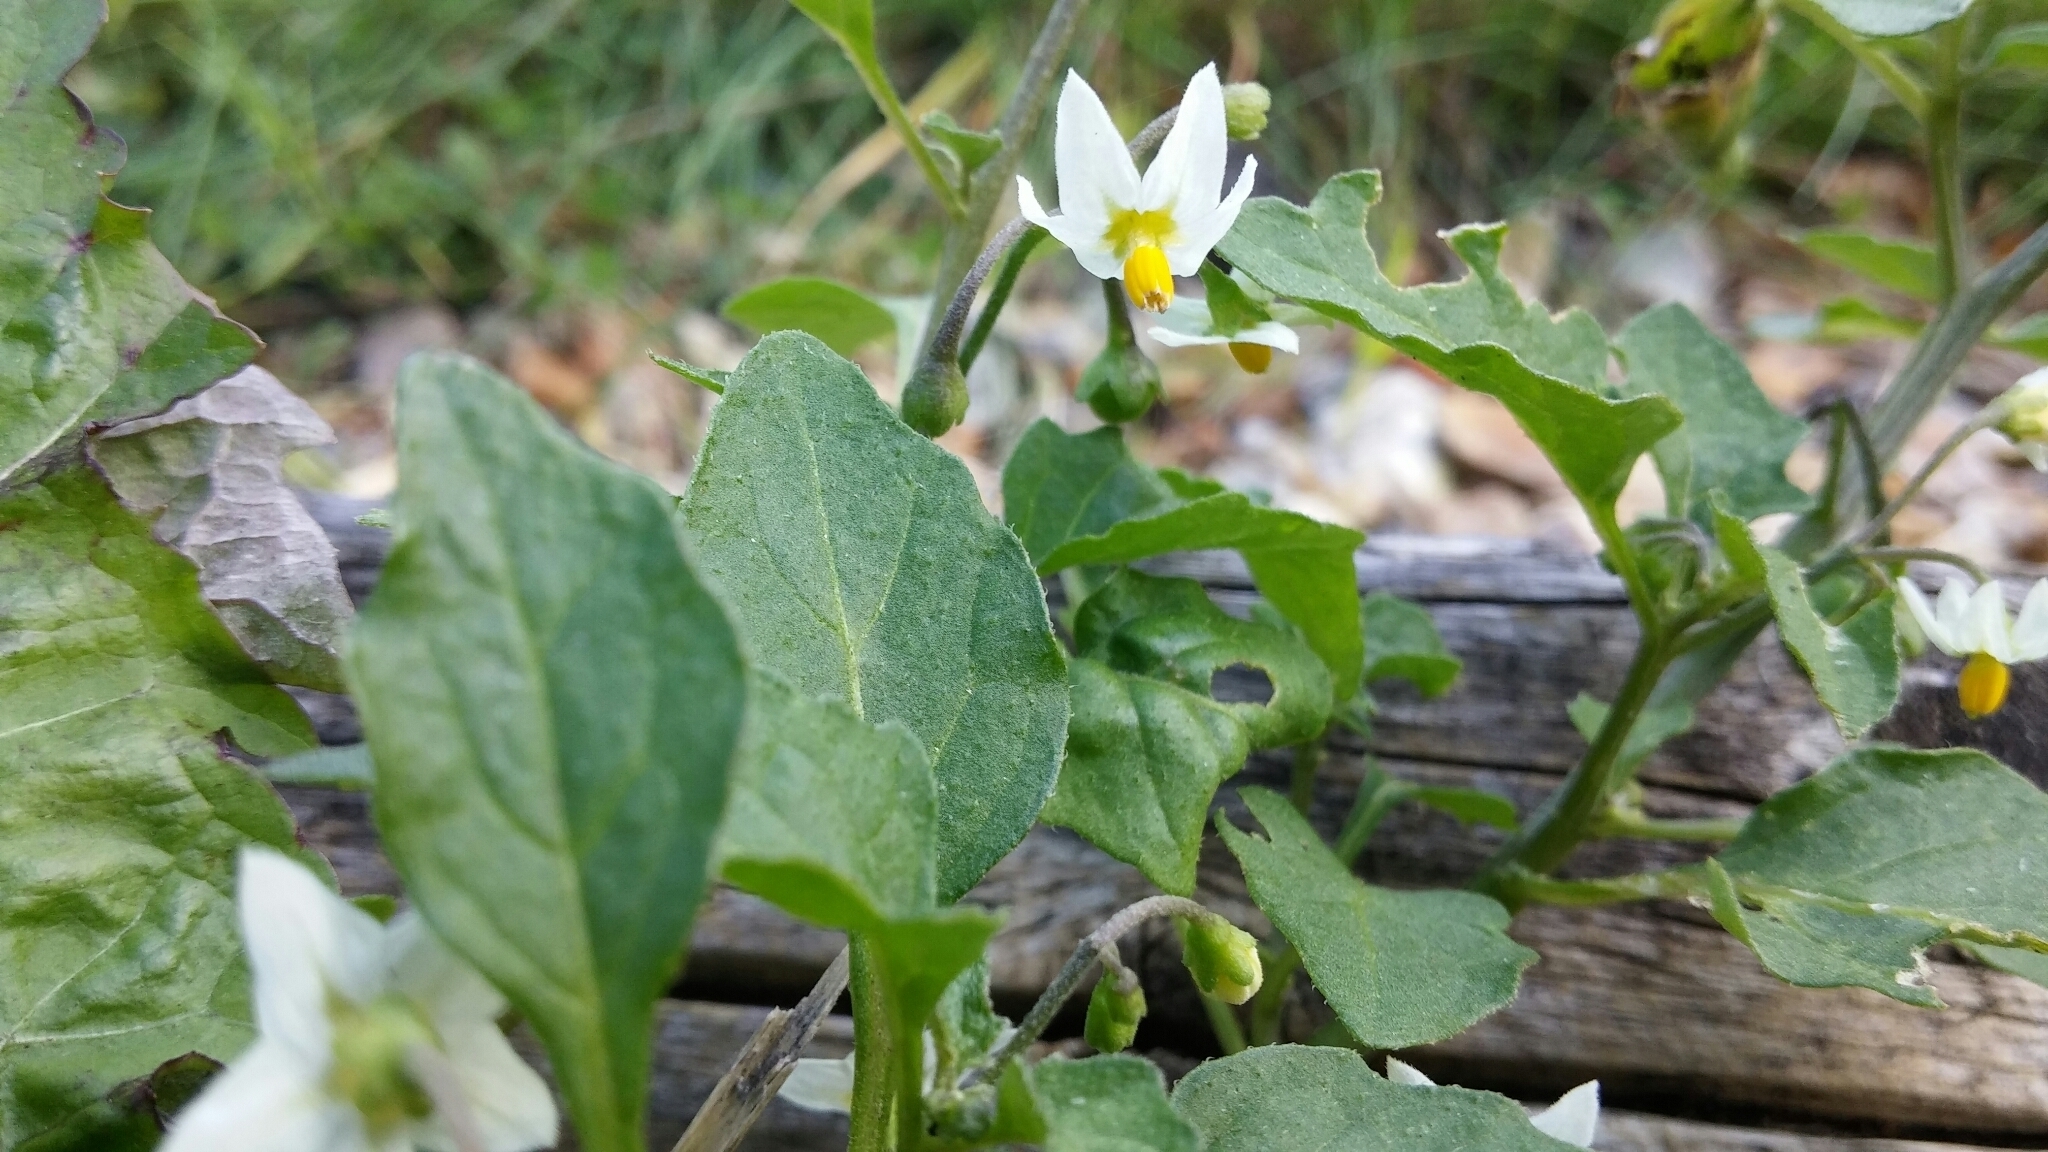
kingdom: Plantae
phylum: Tracheophyta
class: Magnoliopsida
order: Solanales
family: Solanaceae
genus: Solanum
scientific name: Solanum nigrum
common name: Black nightshade
